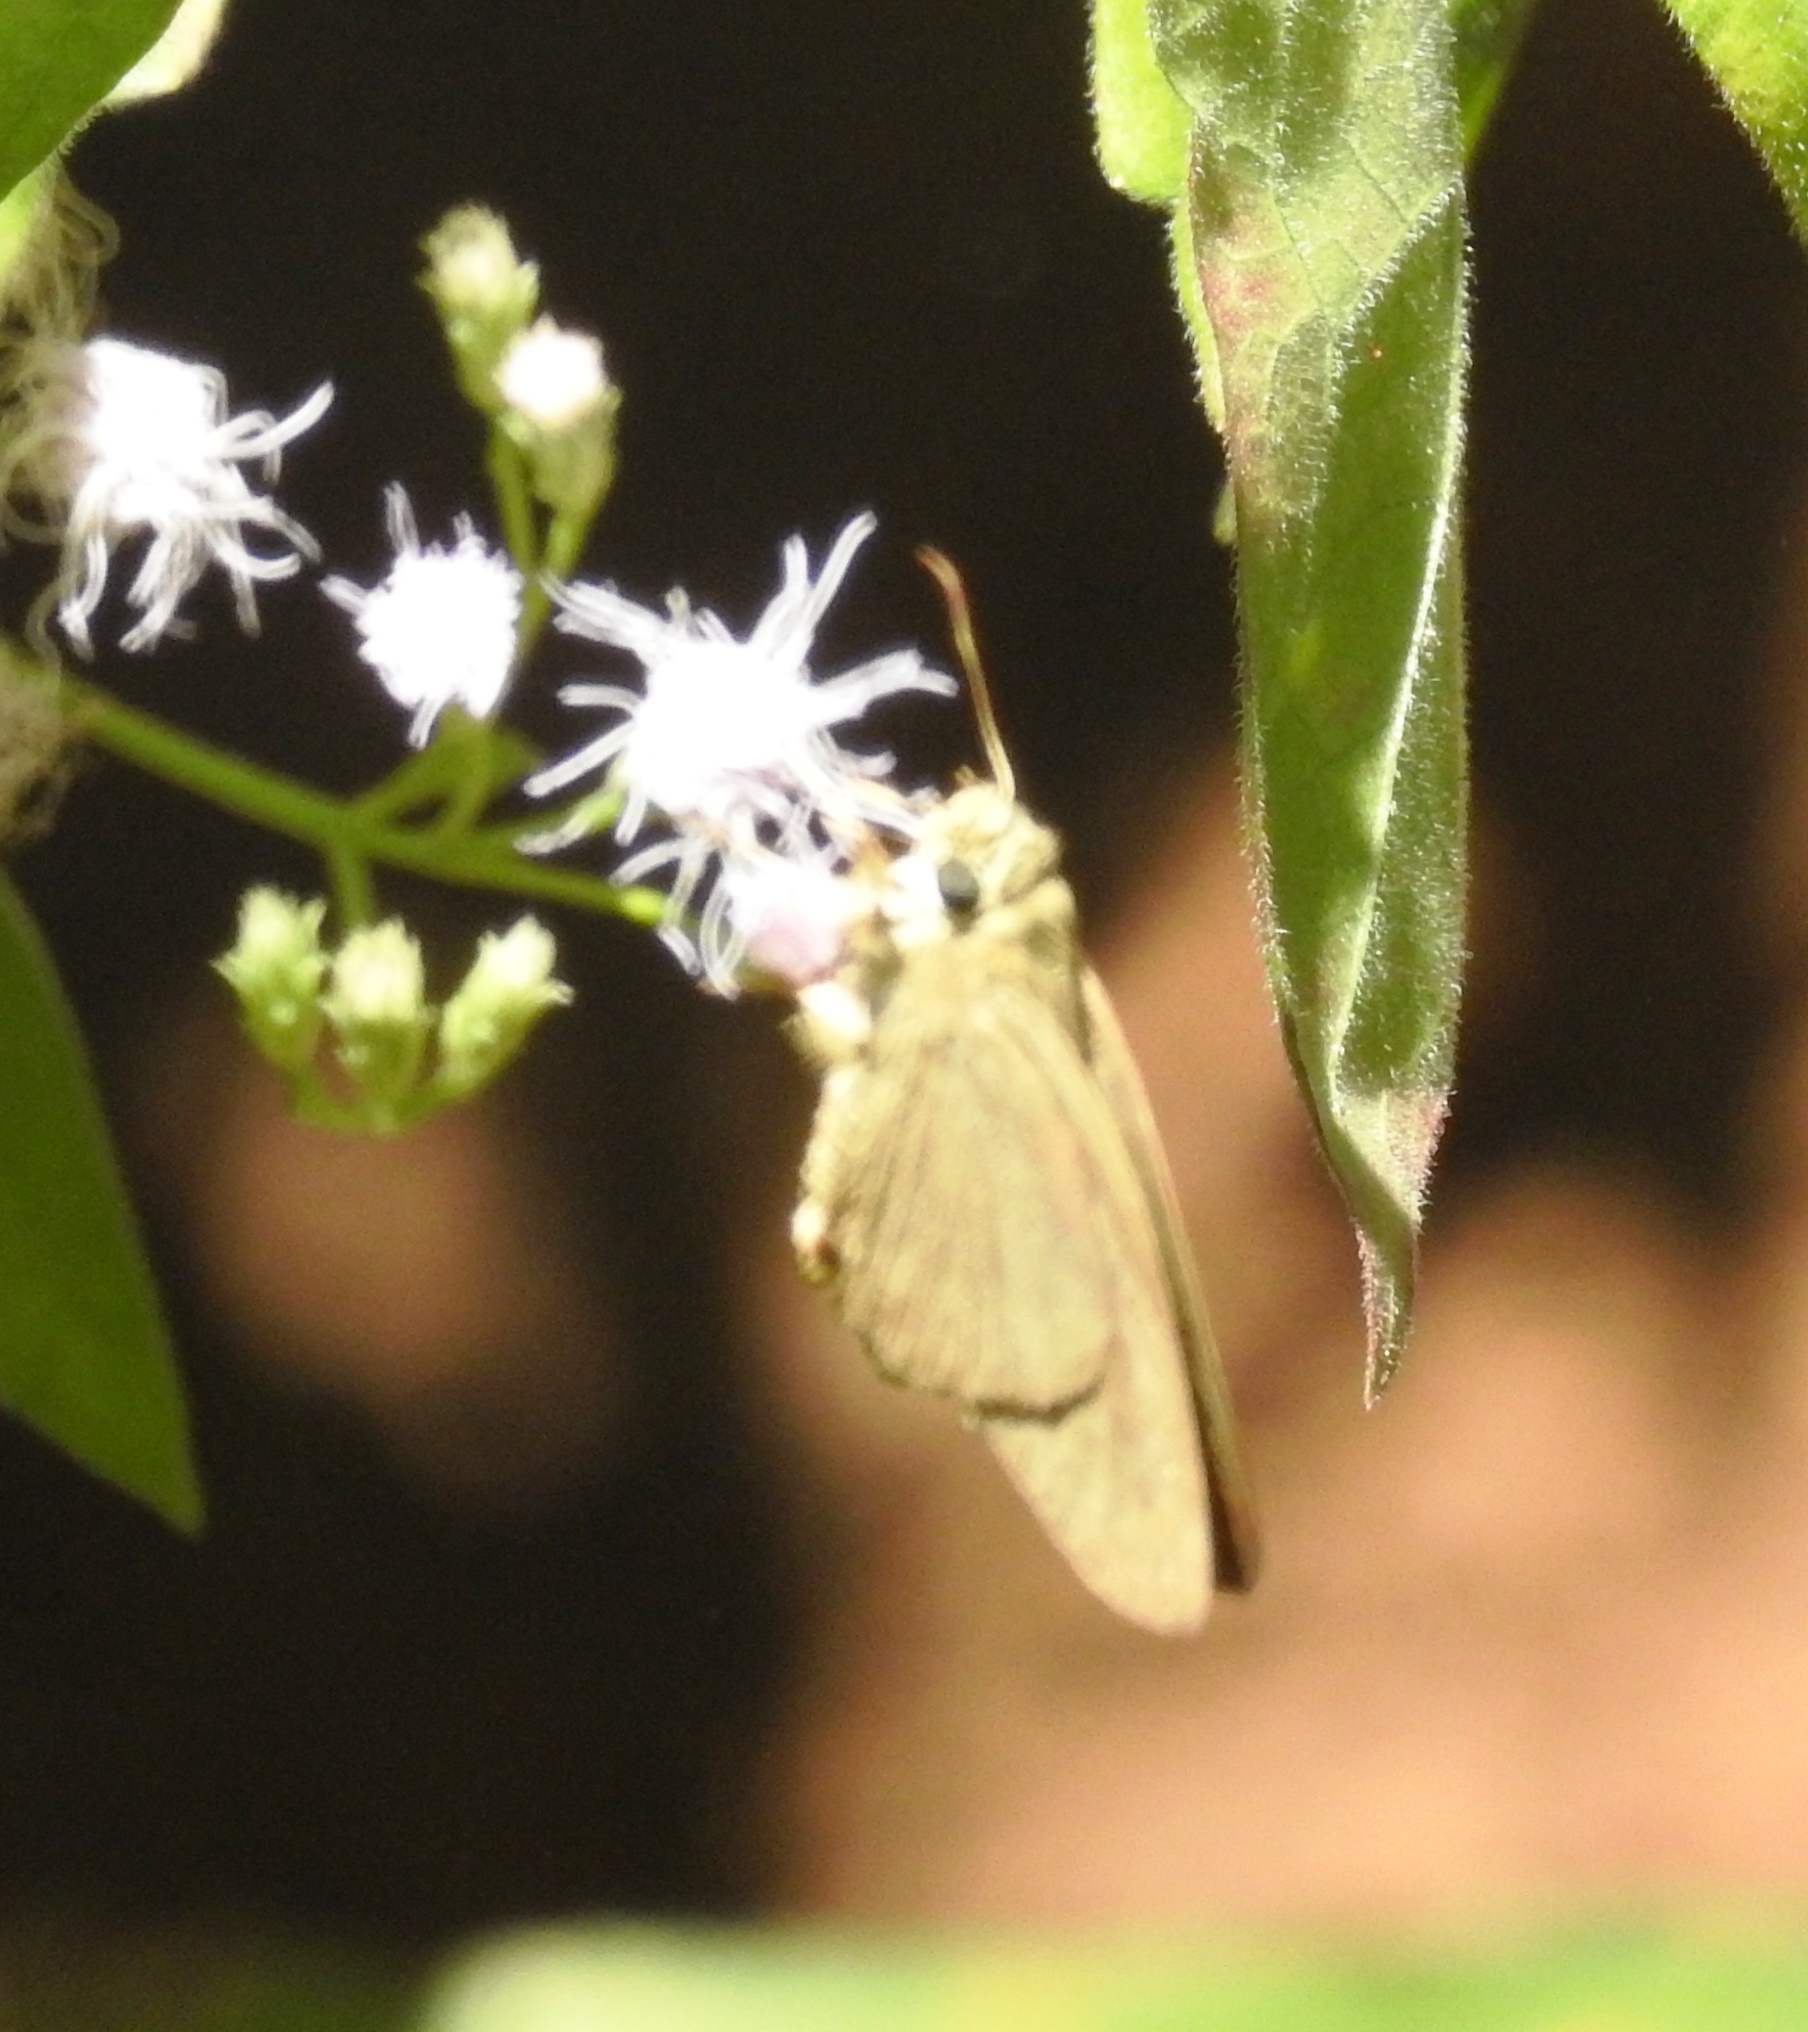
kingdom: Animalia
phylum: Arthropoda
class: Insecta
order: Lepidoptera
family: Hesperiidae
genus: Badamia
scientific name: Badamia exclamationis
